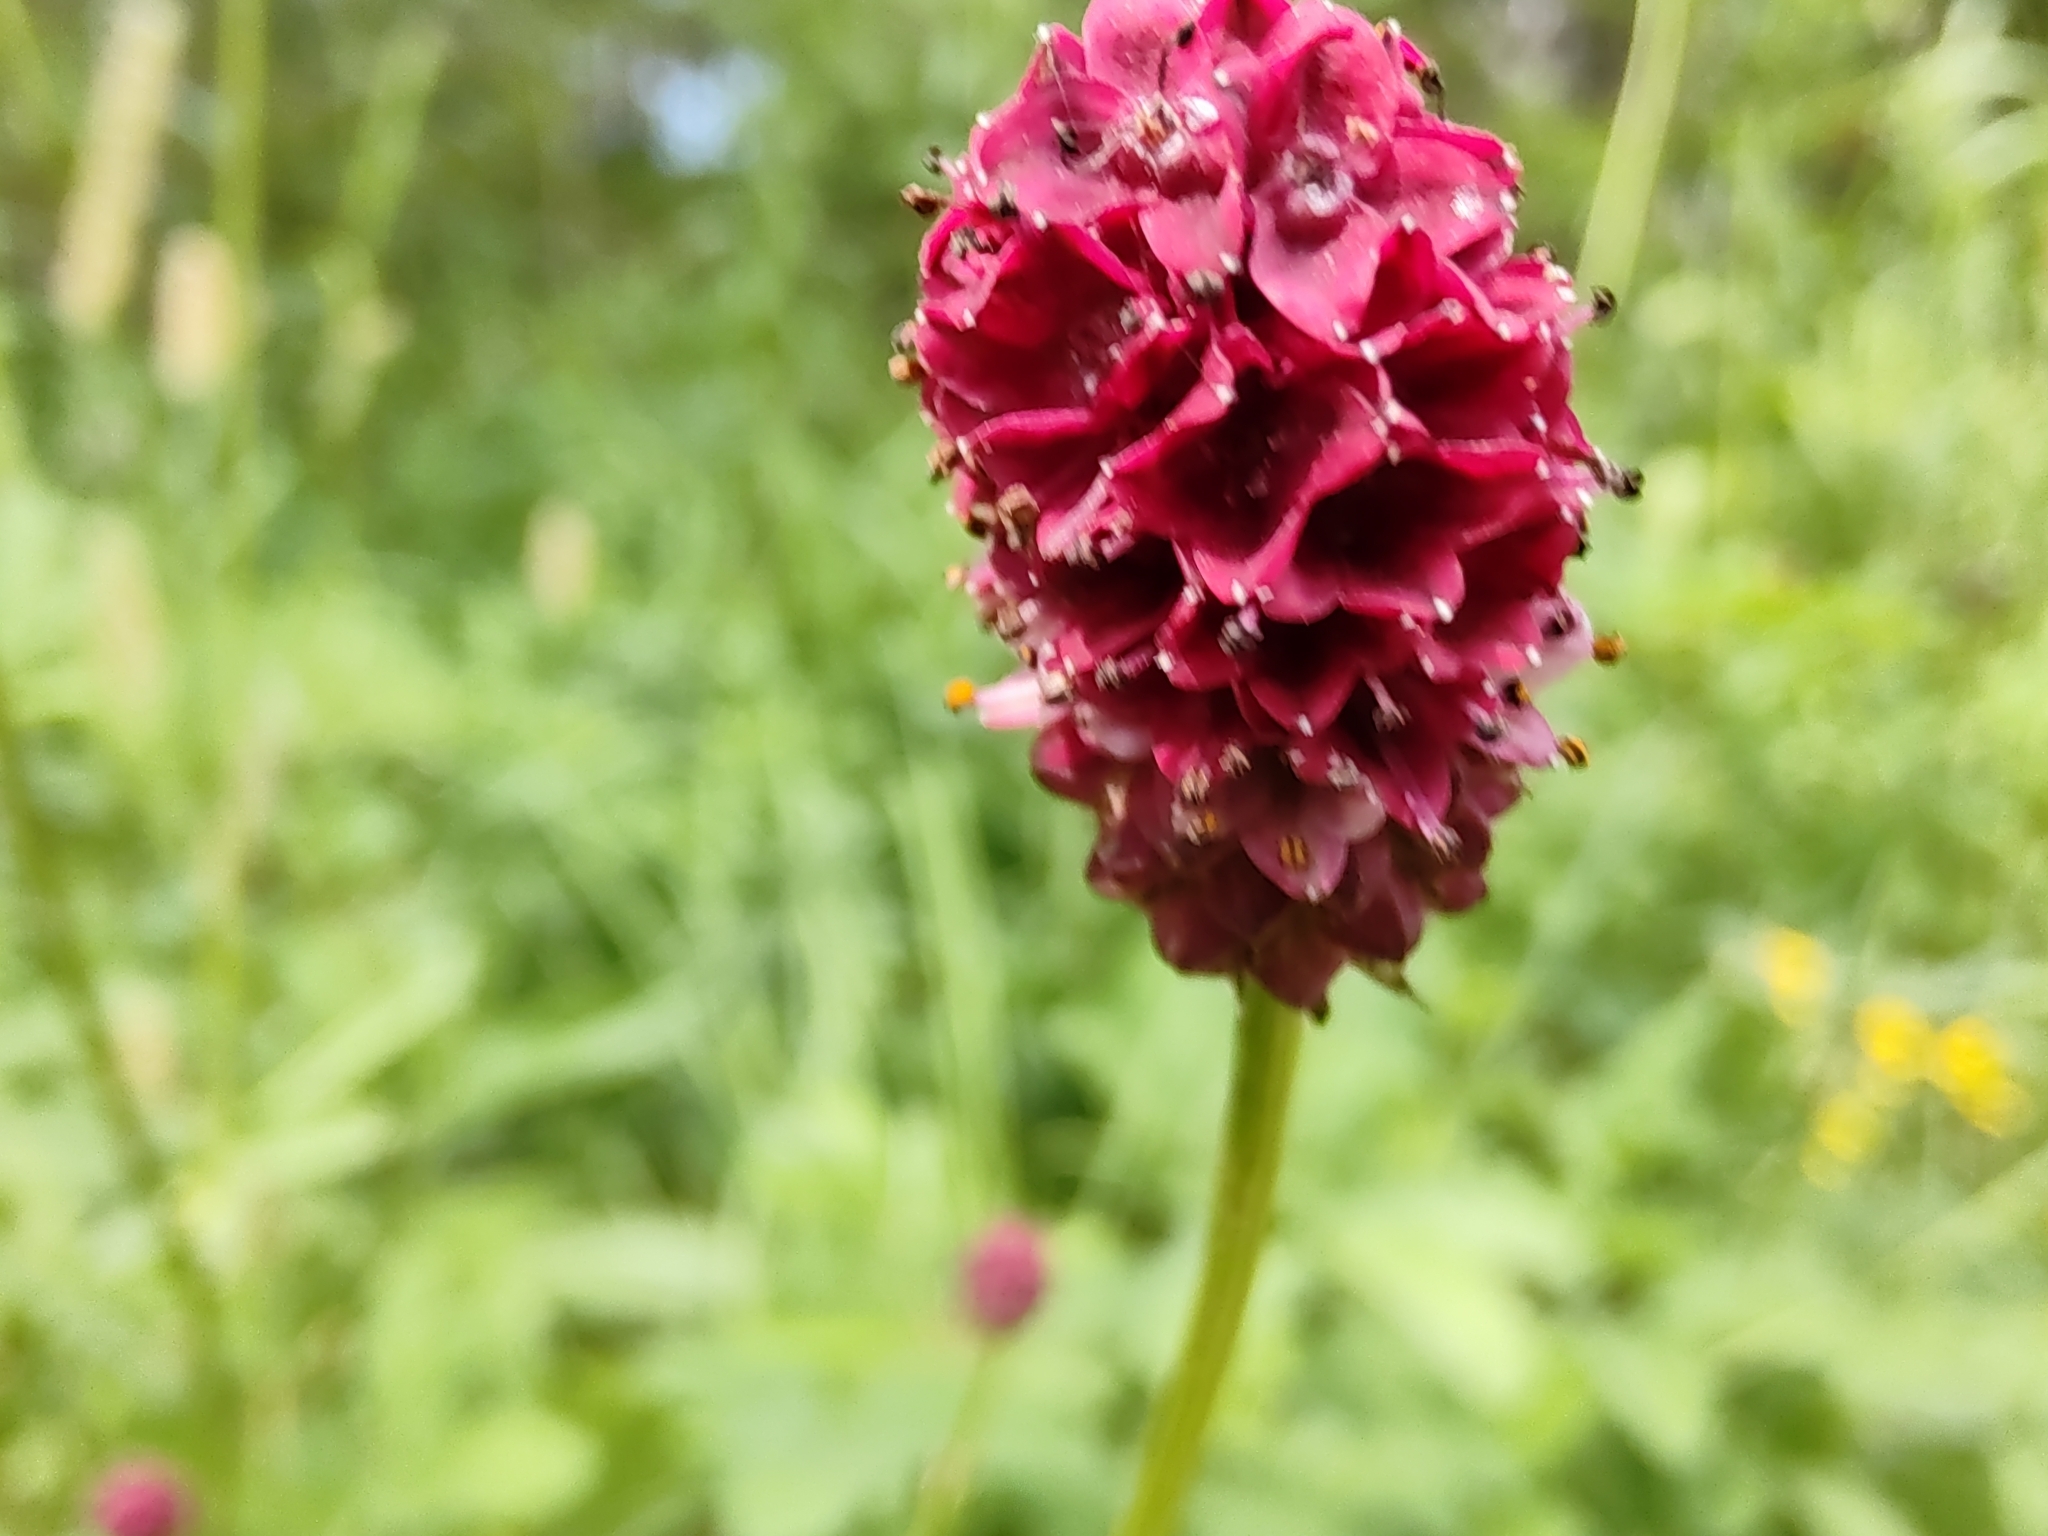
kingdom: Plantae
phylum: Tracheophyta
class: Magnoliopsida
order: Rosales
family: Rosaceae
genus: Sanguisorba
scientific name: Sanguisorba officinalis
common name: Great burnet
